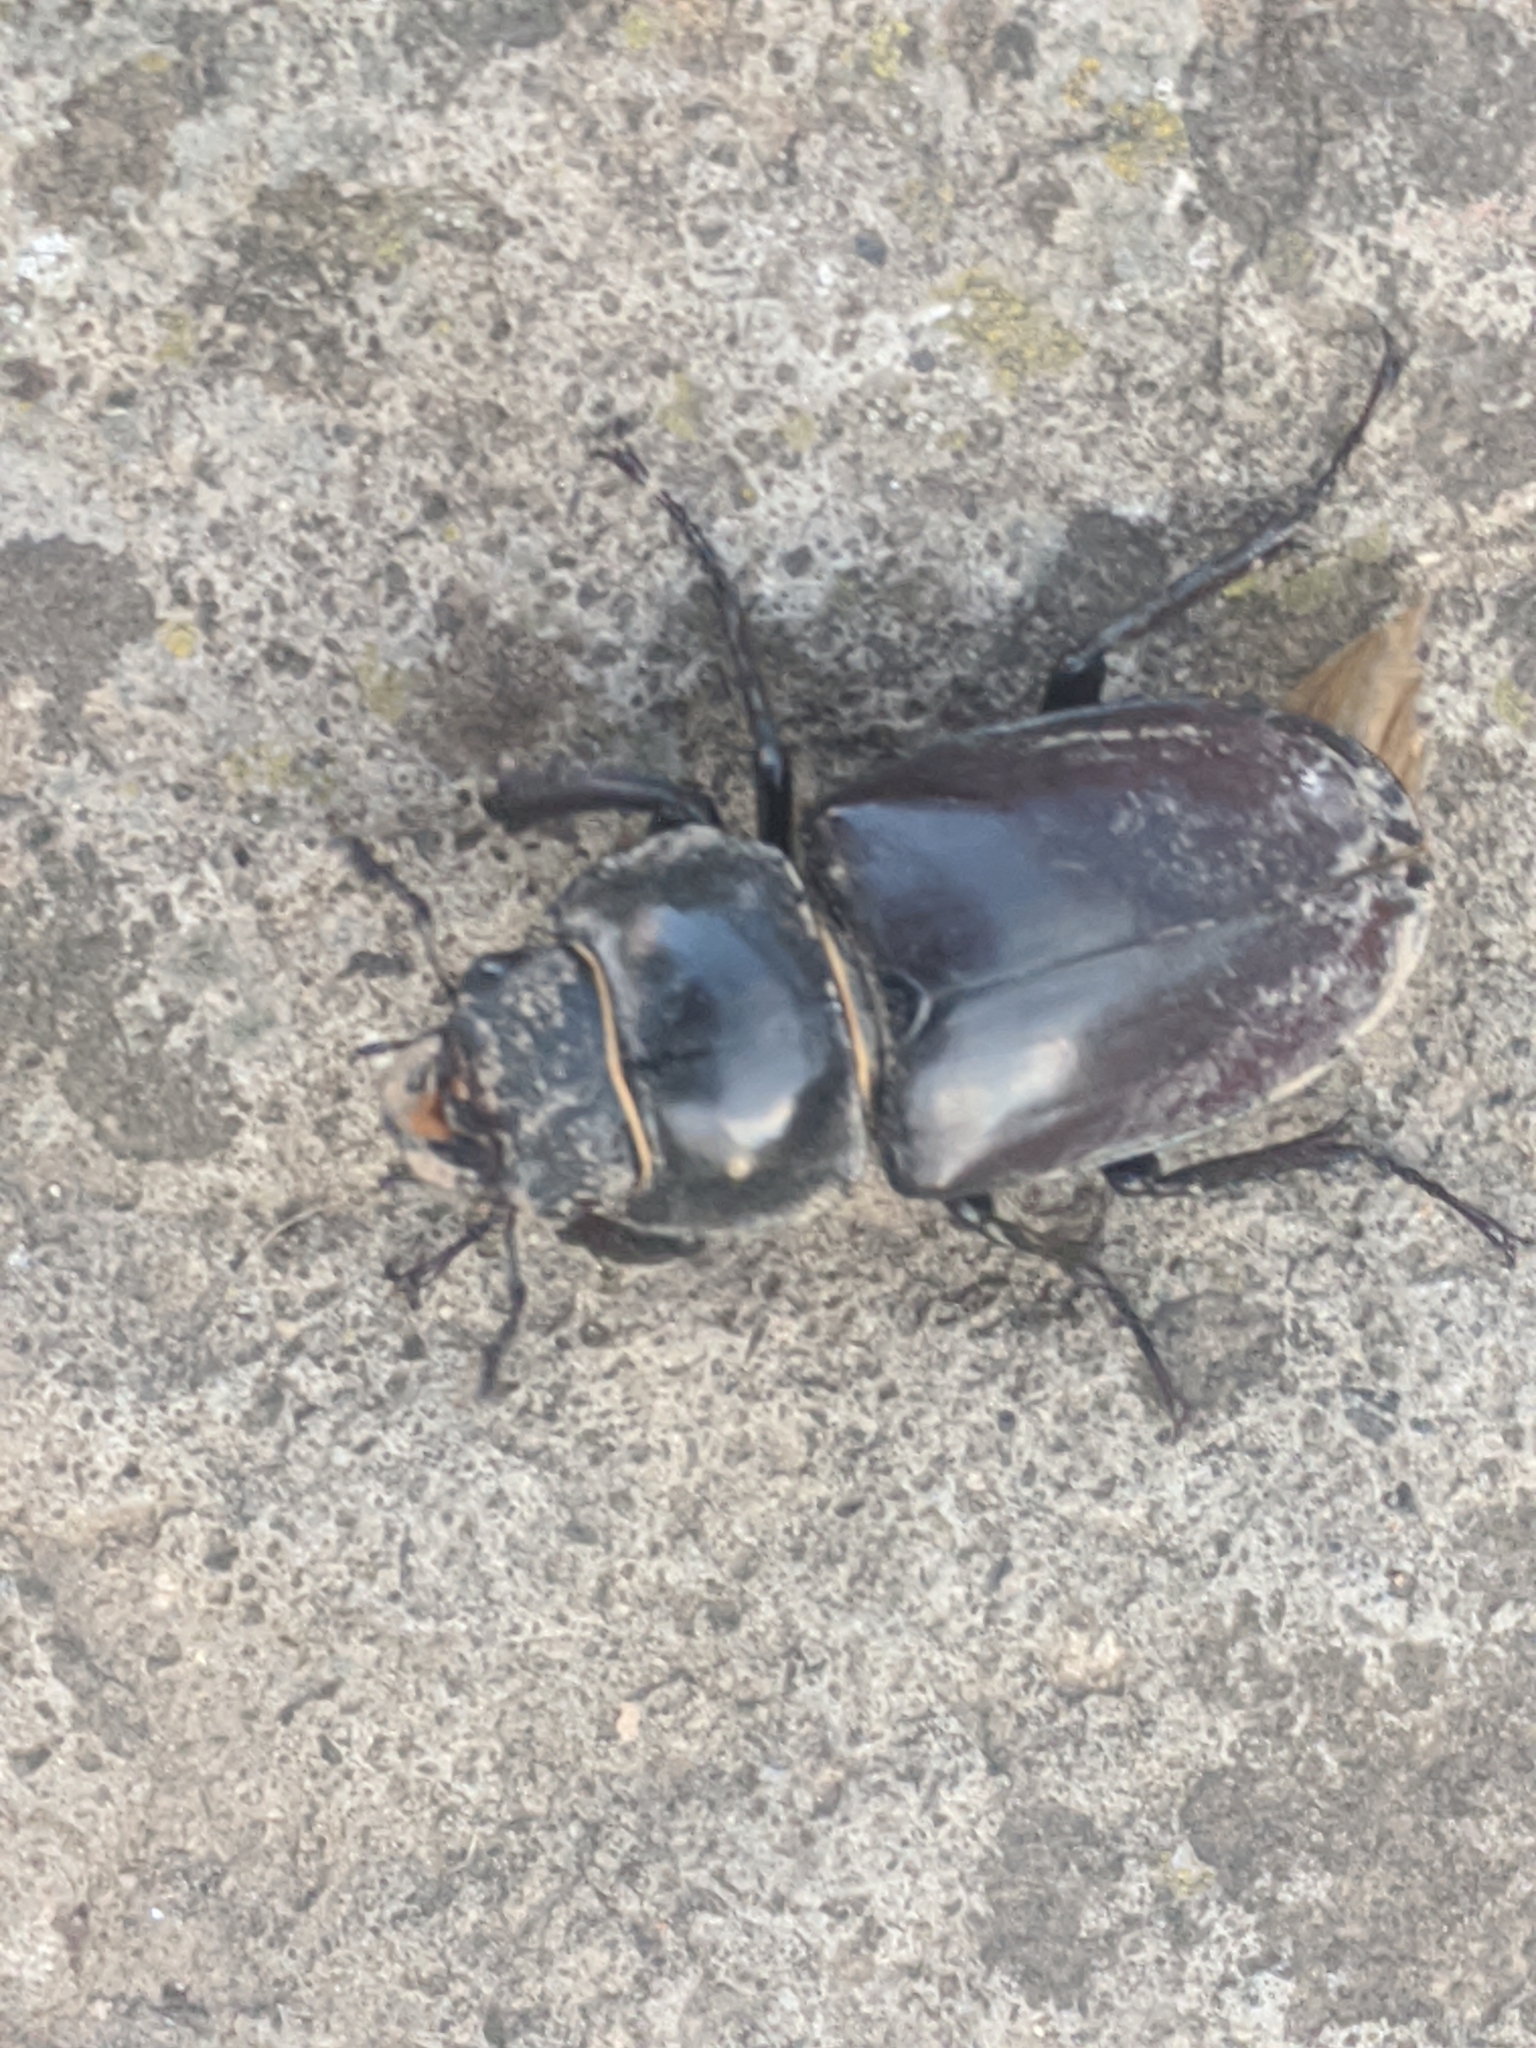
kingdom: Animalia
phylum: Arthropoda
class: Insecta
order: Coleoptera
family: Lucanidae
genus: Lucanus
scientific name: Lucanus cervus
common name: Stag beetle
